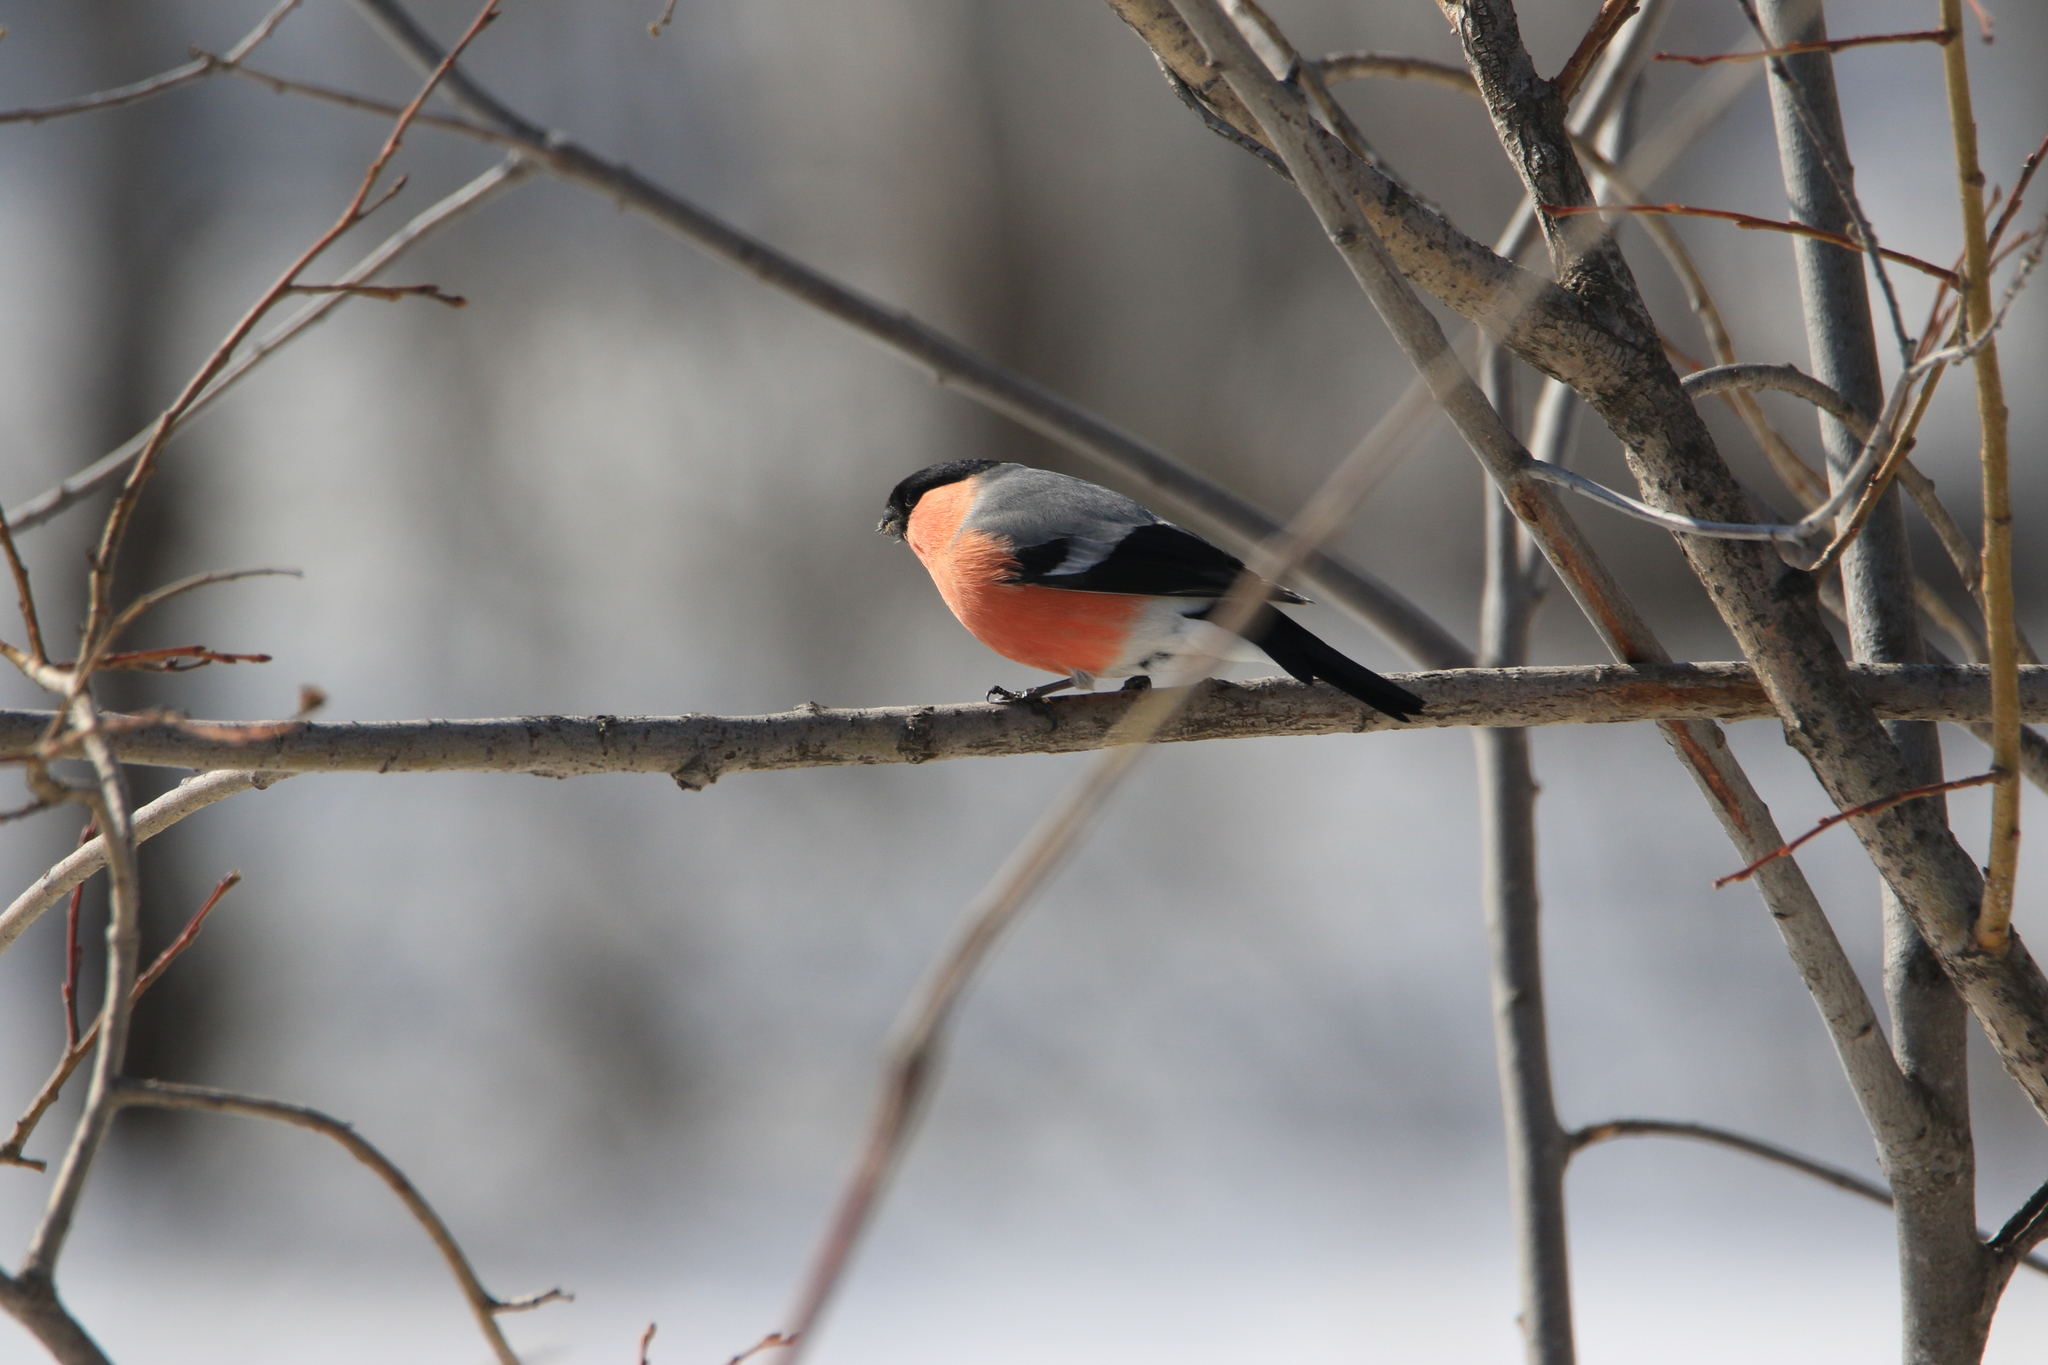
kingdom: Animalia
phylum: Chordata
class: Aves
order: Passeriformes
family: Fringillidae
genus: Pyrrhula
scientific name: Pyrrhula pyrrhula
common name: Eurasian bullfinch
